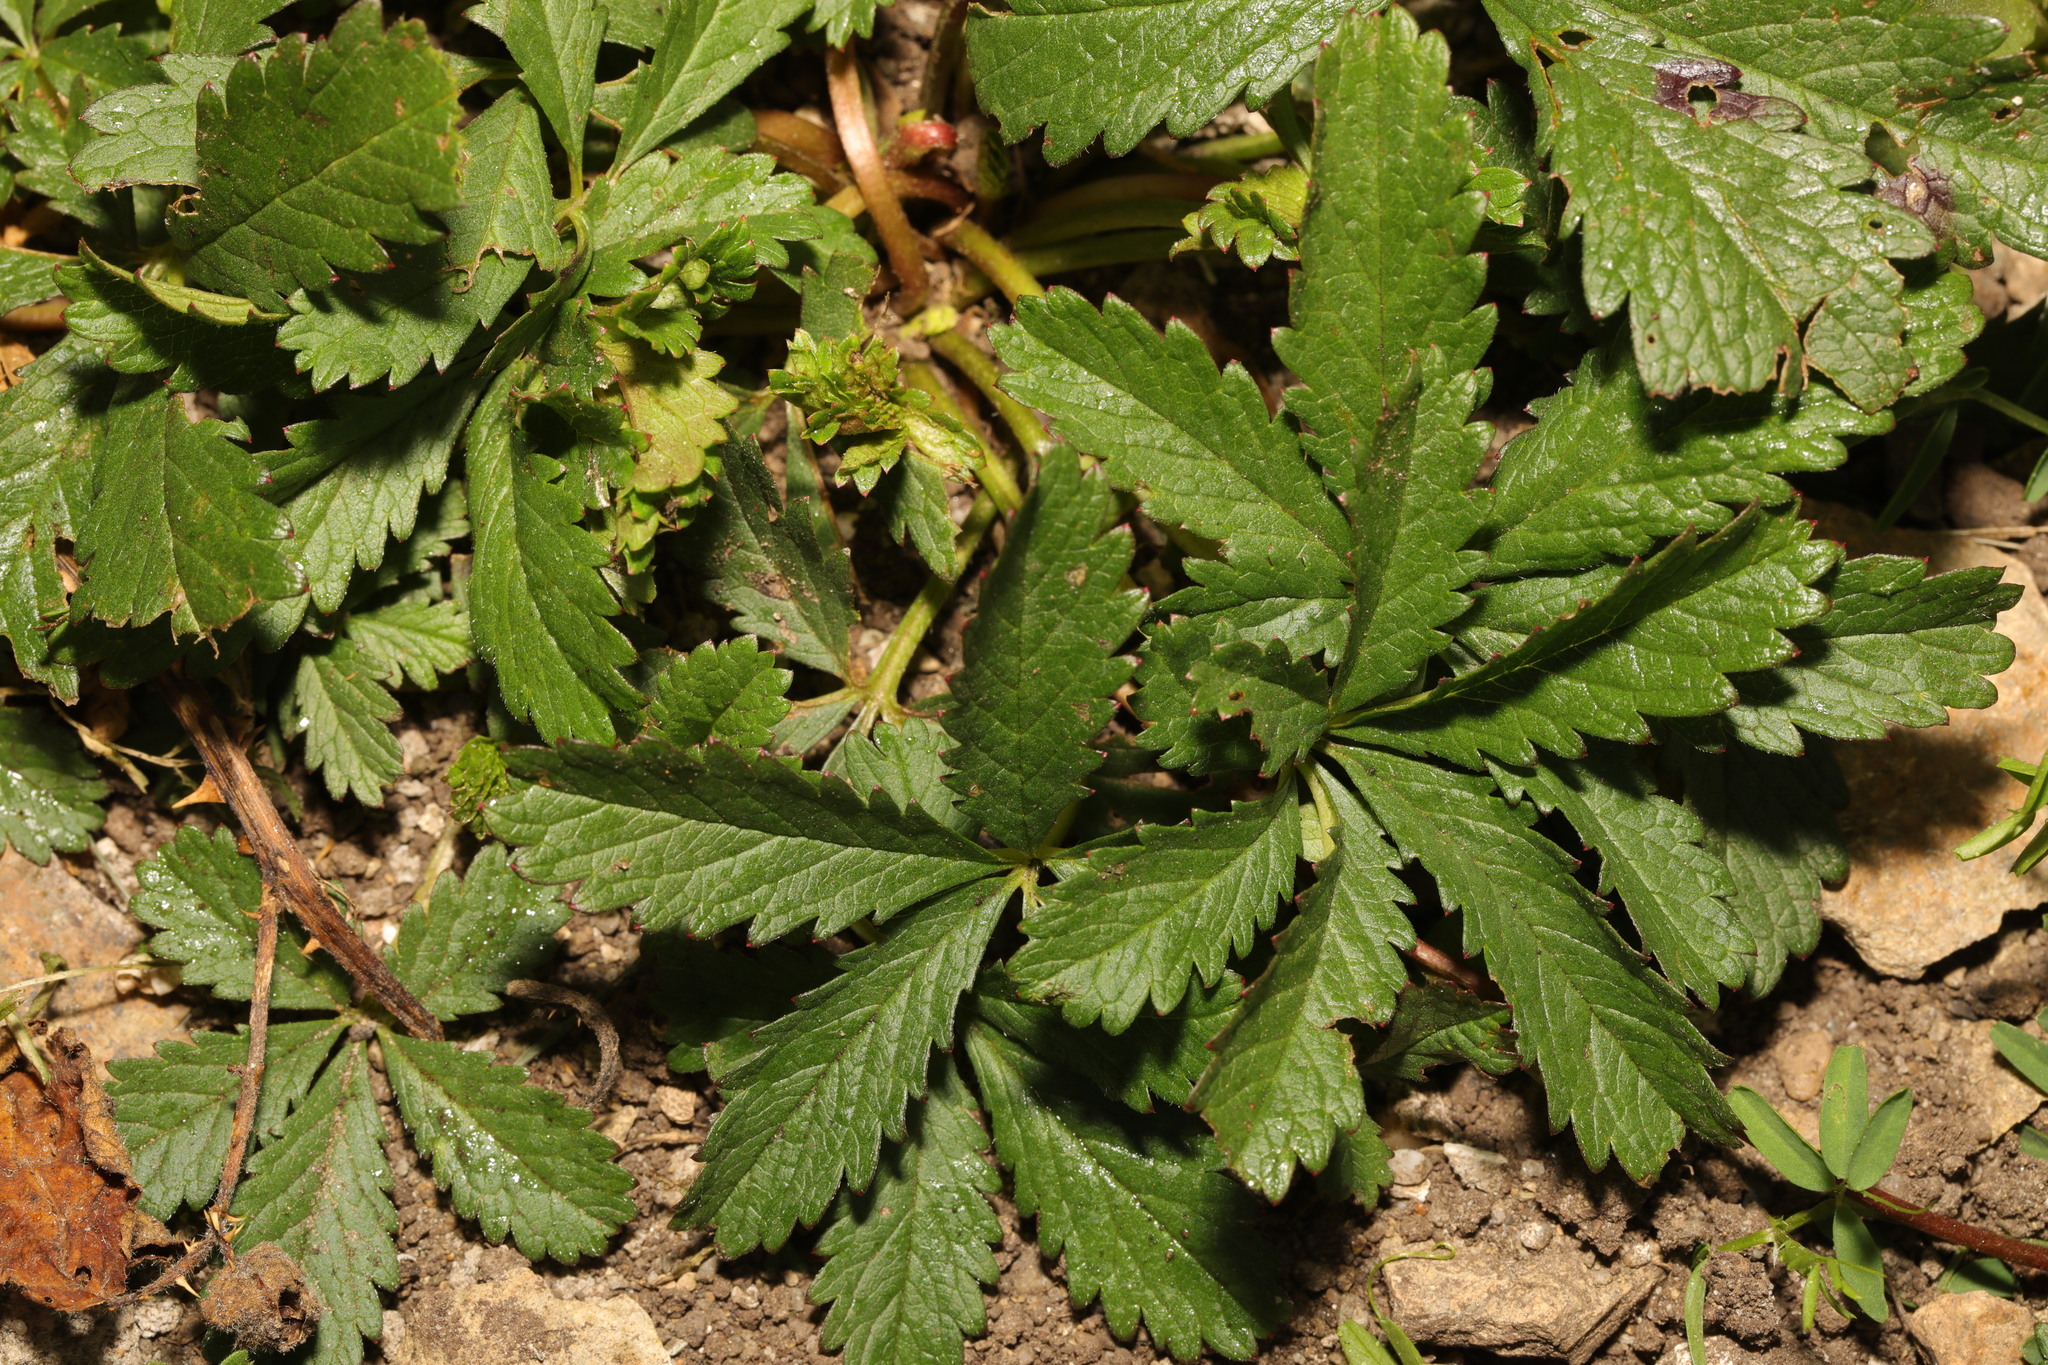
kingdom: Plantae
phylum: Tracheophyta
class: Magnoliopsida
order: Rosales
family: Rosaceae
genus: Potentilla
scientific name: Potentilla reptans
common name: Creeping cinquefoil
